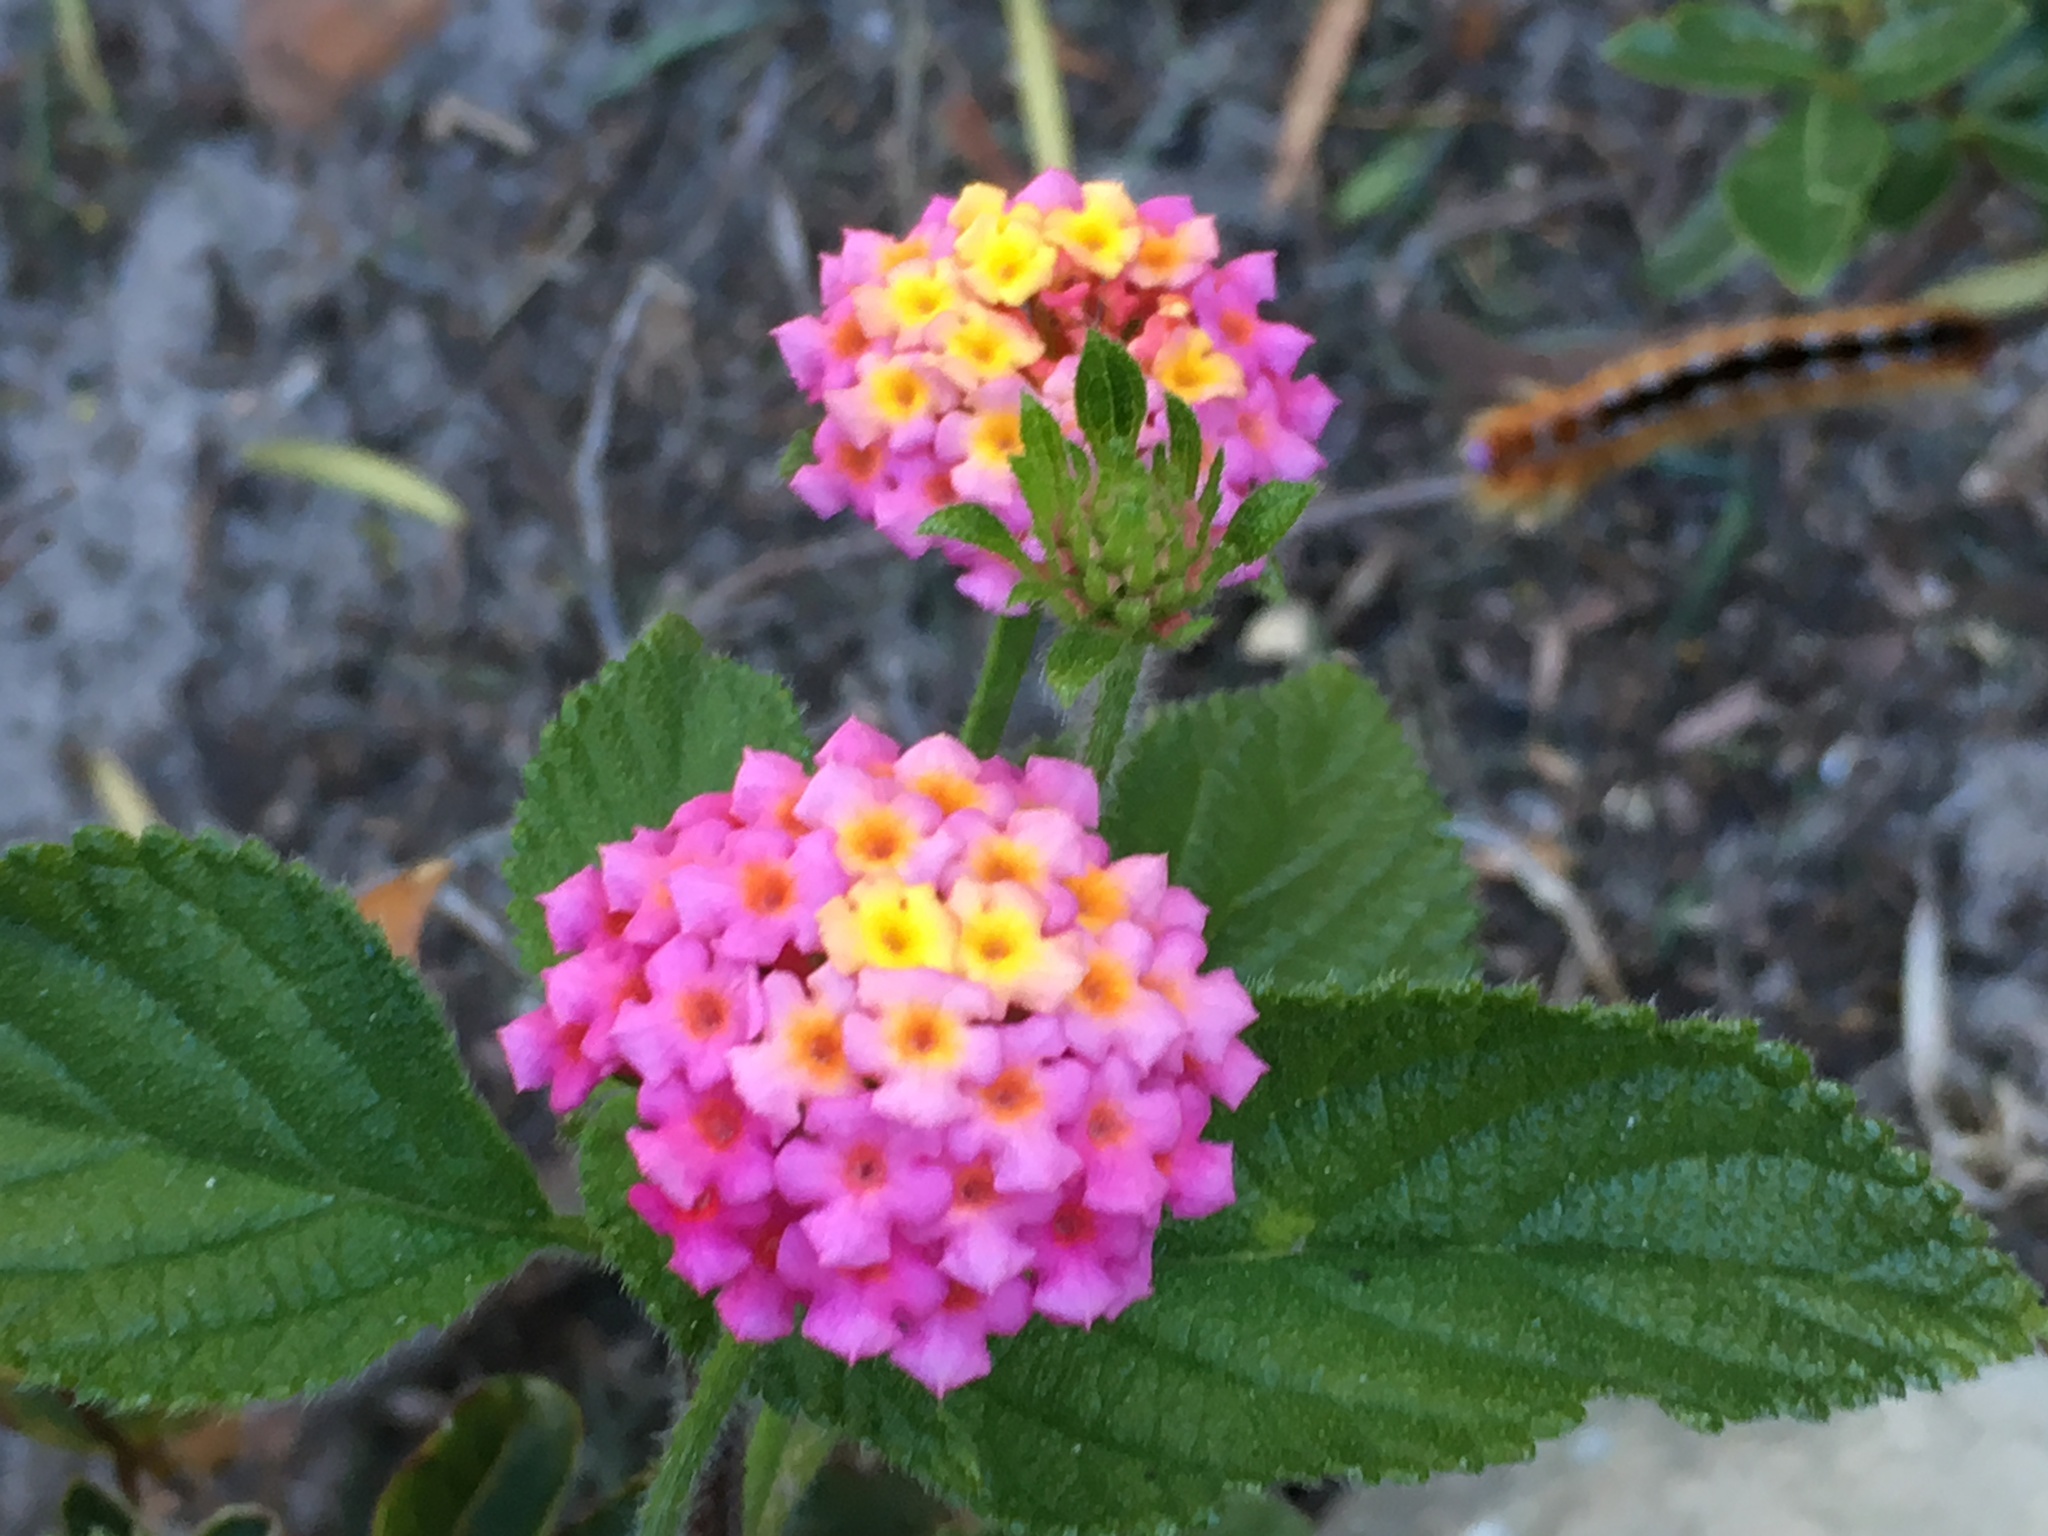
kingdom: Plantae
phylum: Tracheophyta
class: Magnoliopsida
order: Lamiales
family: Verbenaceae
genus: Lantana
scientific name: Lantana camara
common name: Lantana
